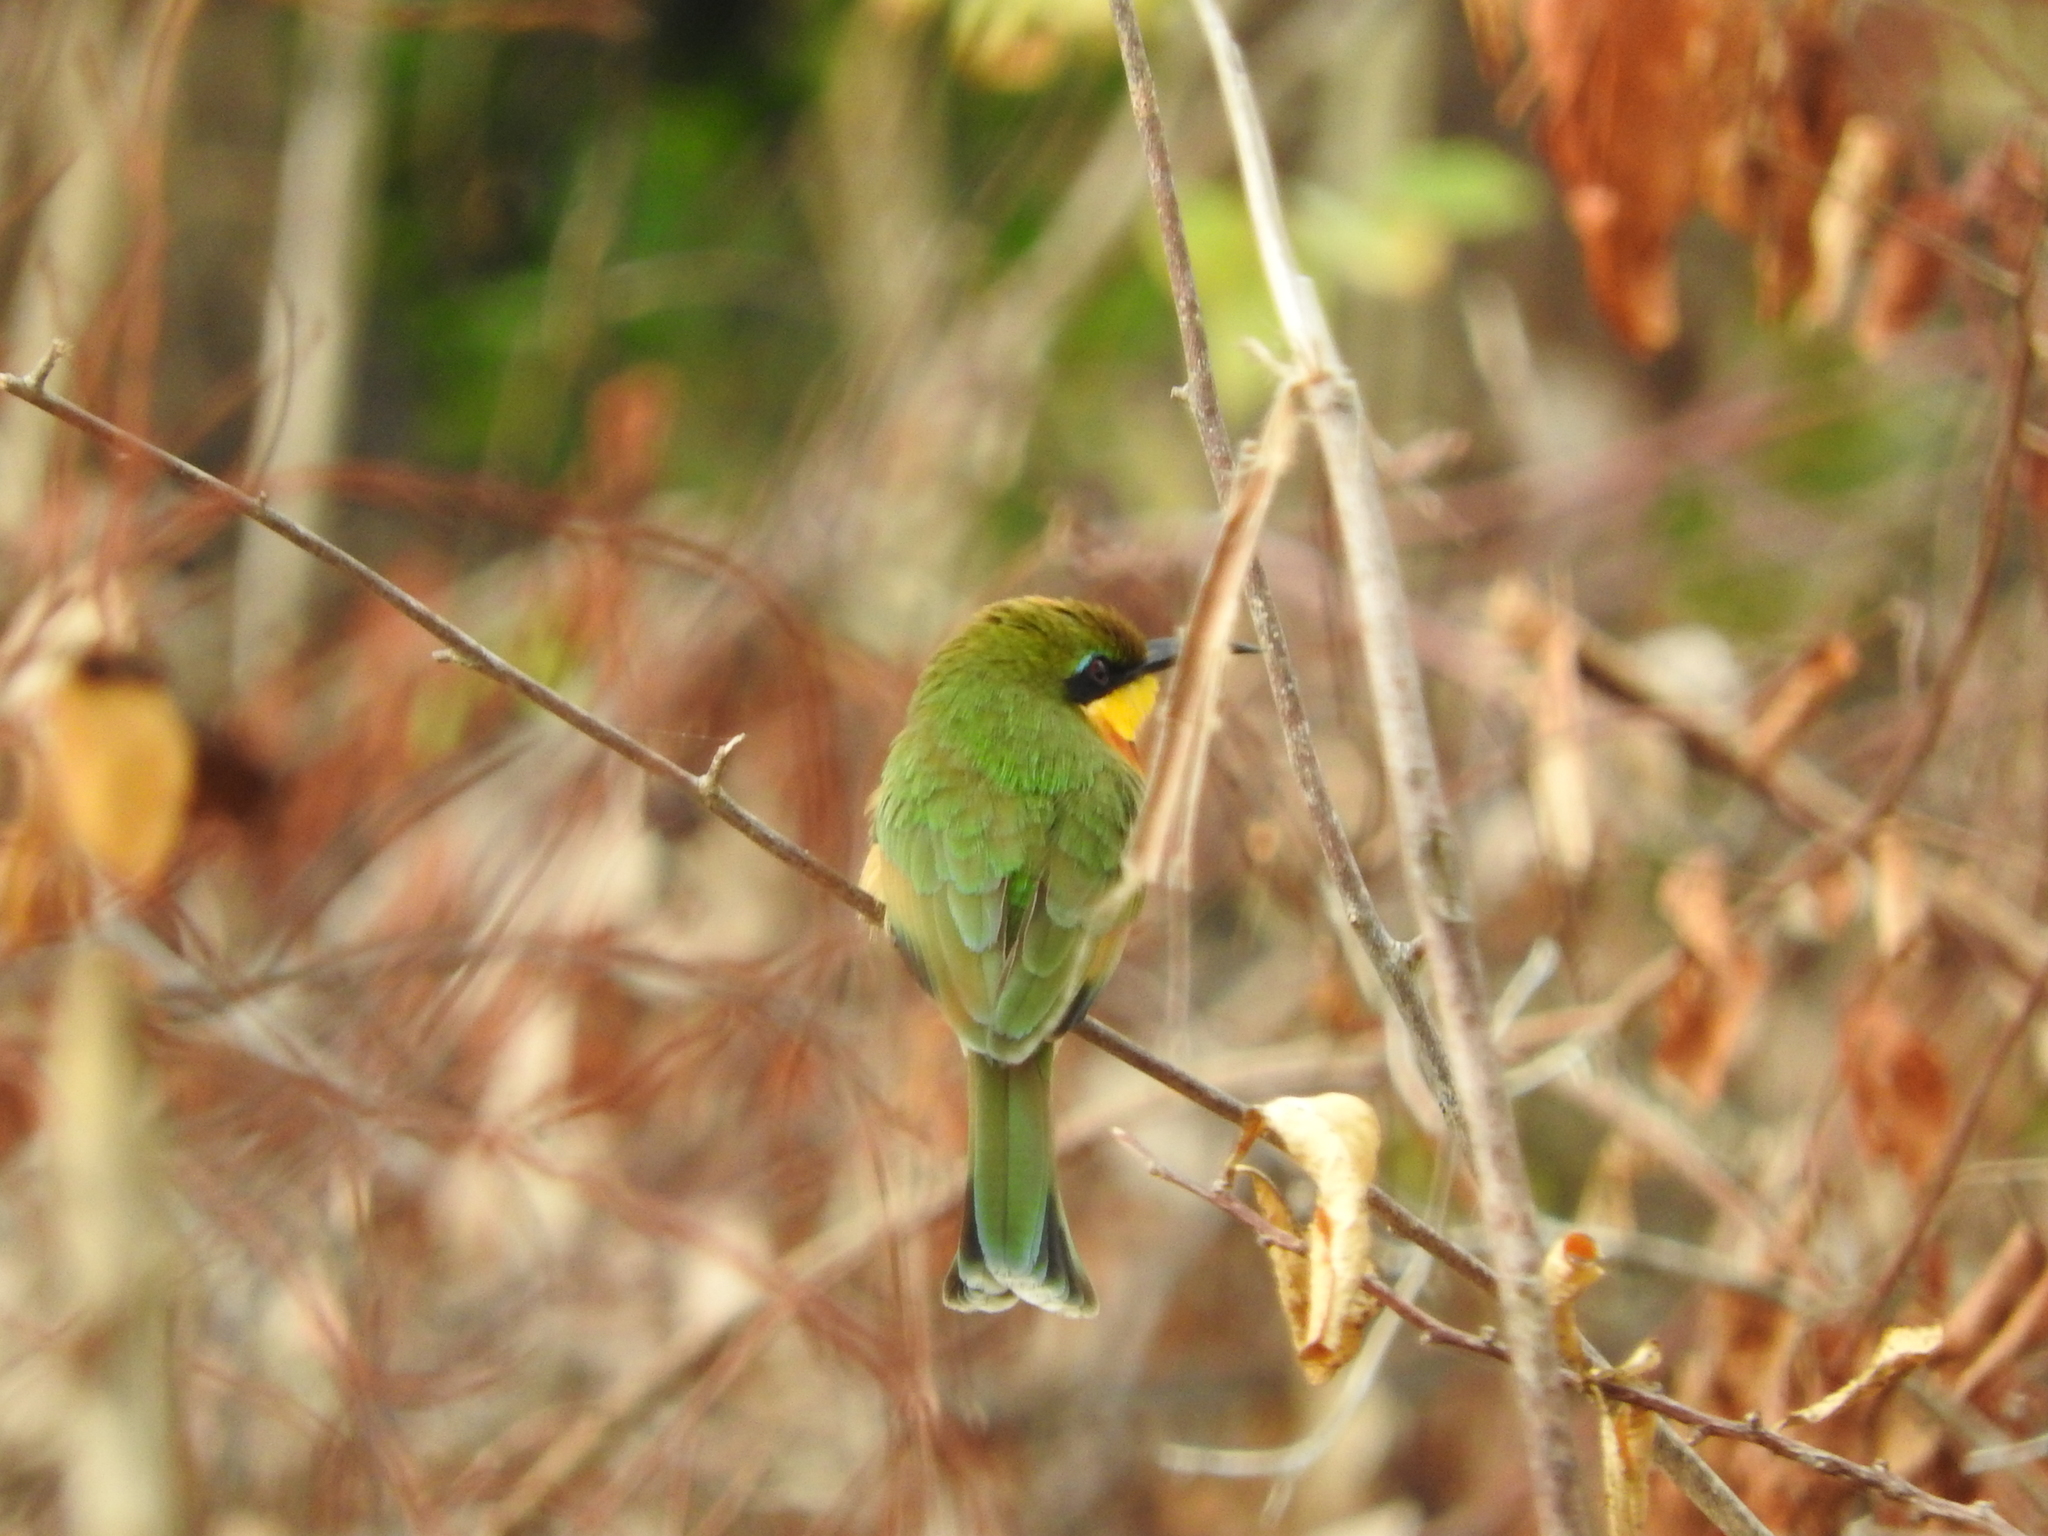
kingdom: Animalia
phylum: Chordata
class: Aves
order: Coraciiformes
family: Meropidae
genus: Merops
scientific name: Merops pusillus
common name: Little bee-eater
